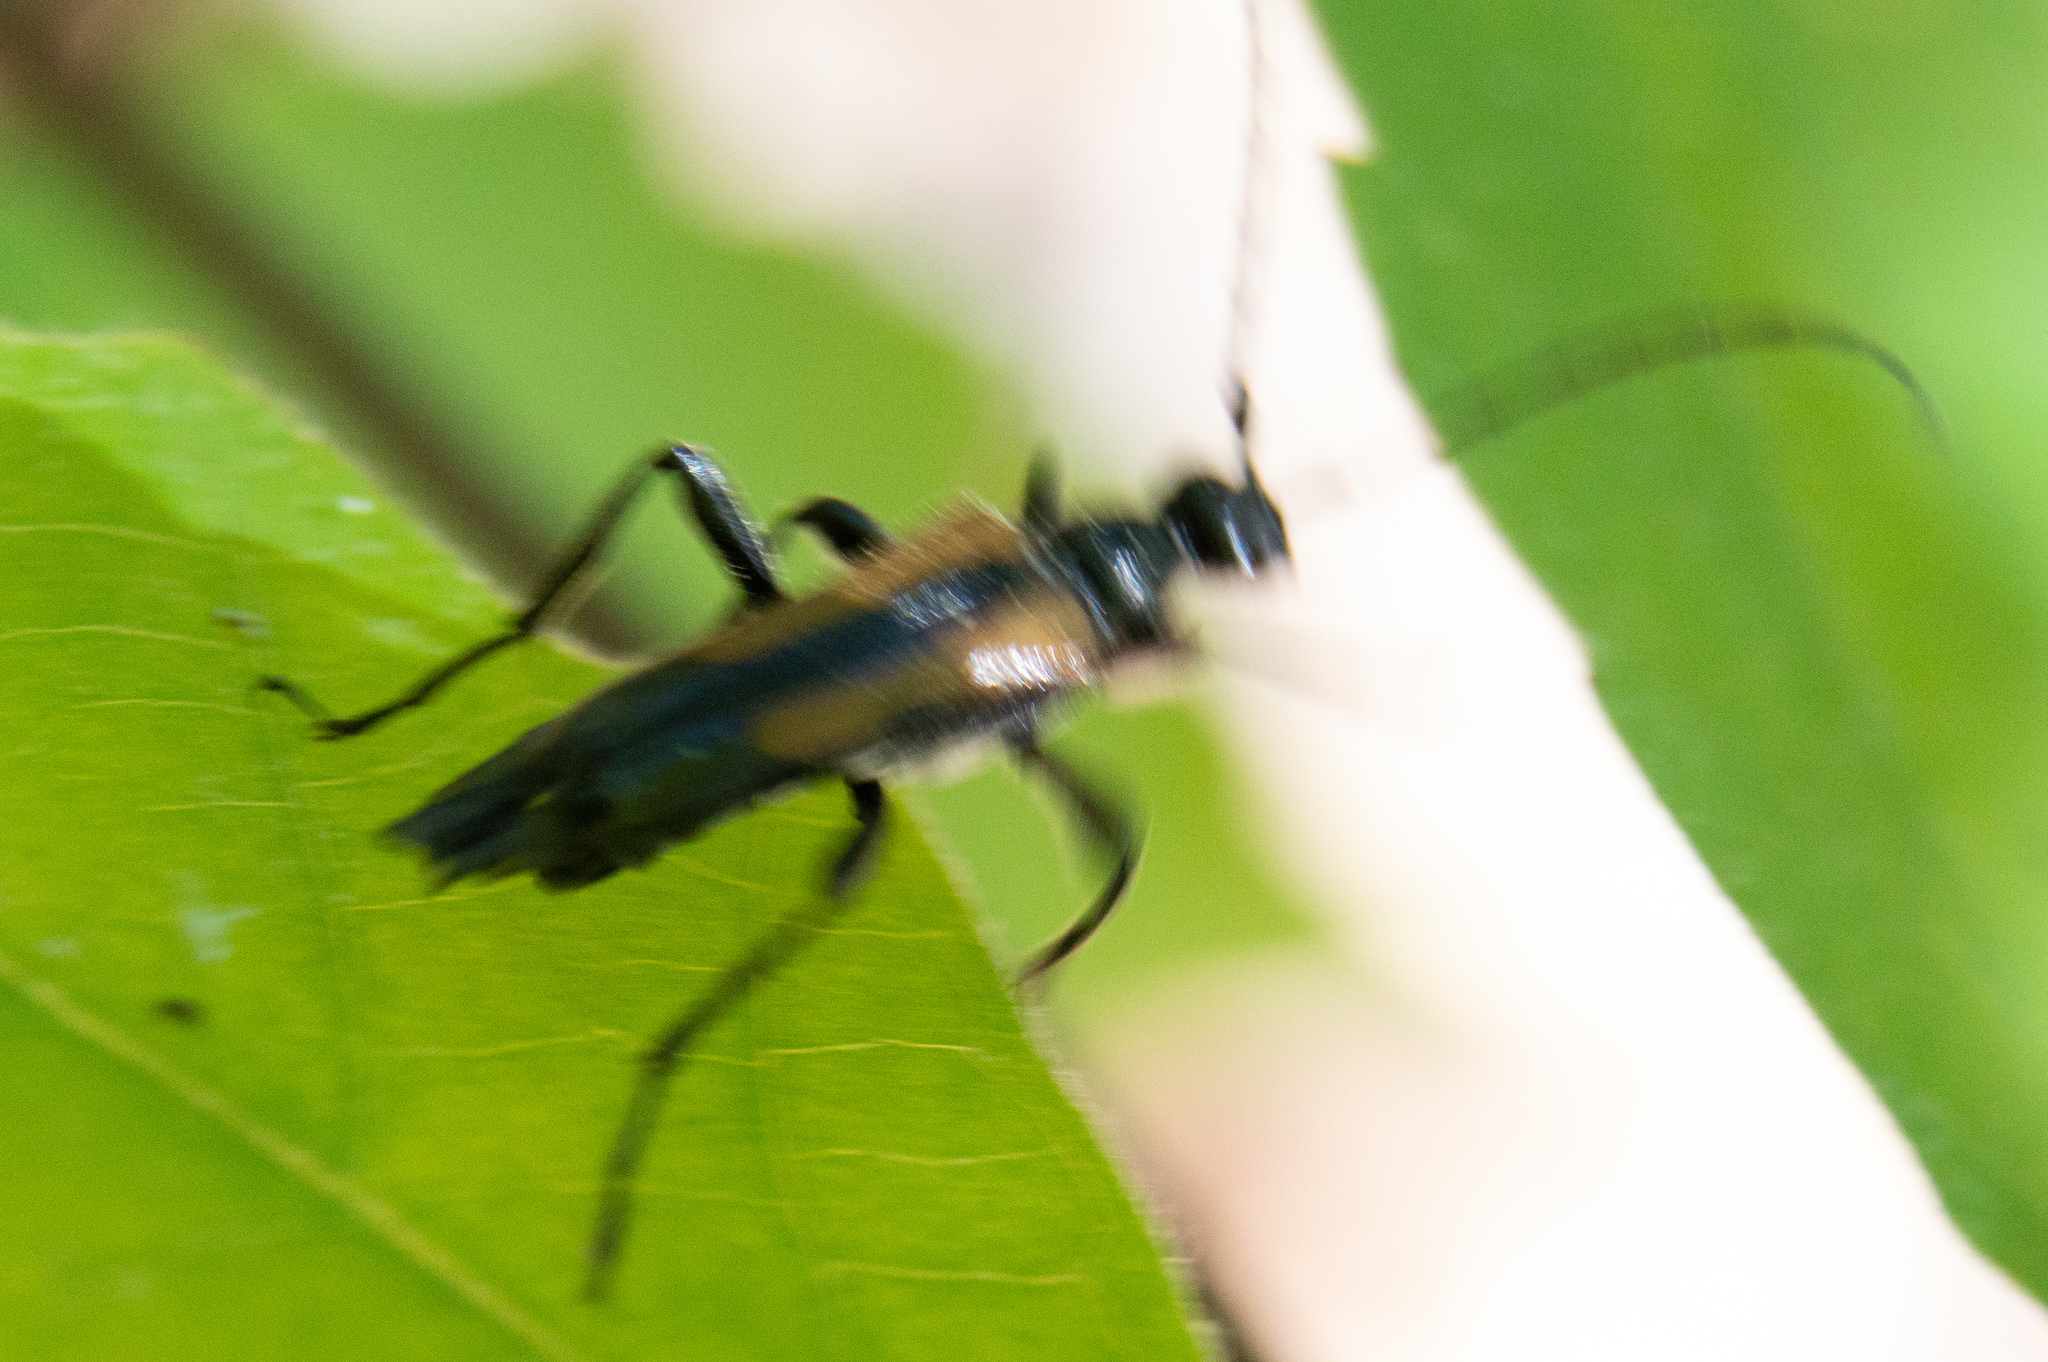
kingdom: Animalia
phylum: Arthropoda
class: Insecta
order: Coleoptera
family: Cerambycidae
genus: Strangalepta
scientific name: Strangalepta abbreviata
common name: Strangalepta flower longhorn beetle
